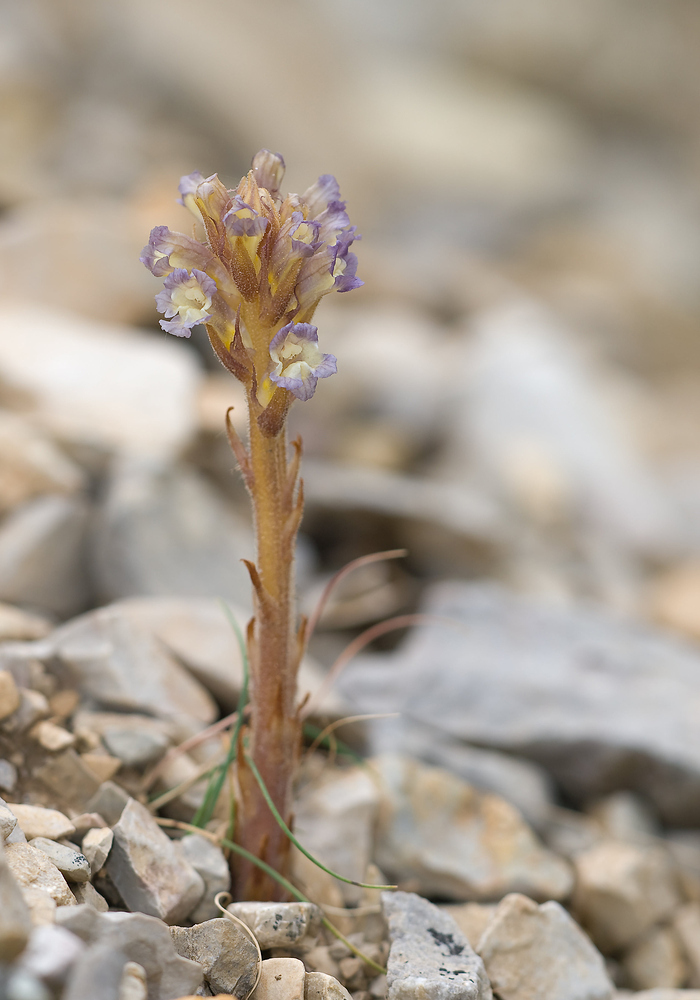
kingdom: Plantae
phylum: Tracheophyta
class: Magnoliopsida
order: Lamiales
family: Orobanchaceae
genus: Orobanche
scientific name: Orobanche grenieri
